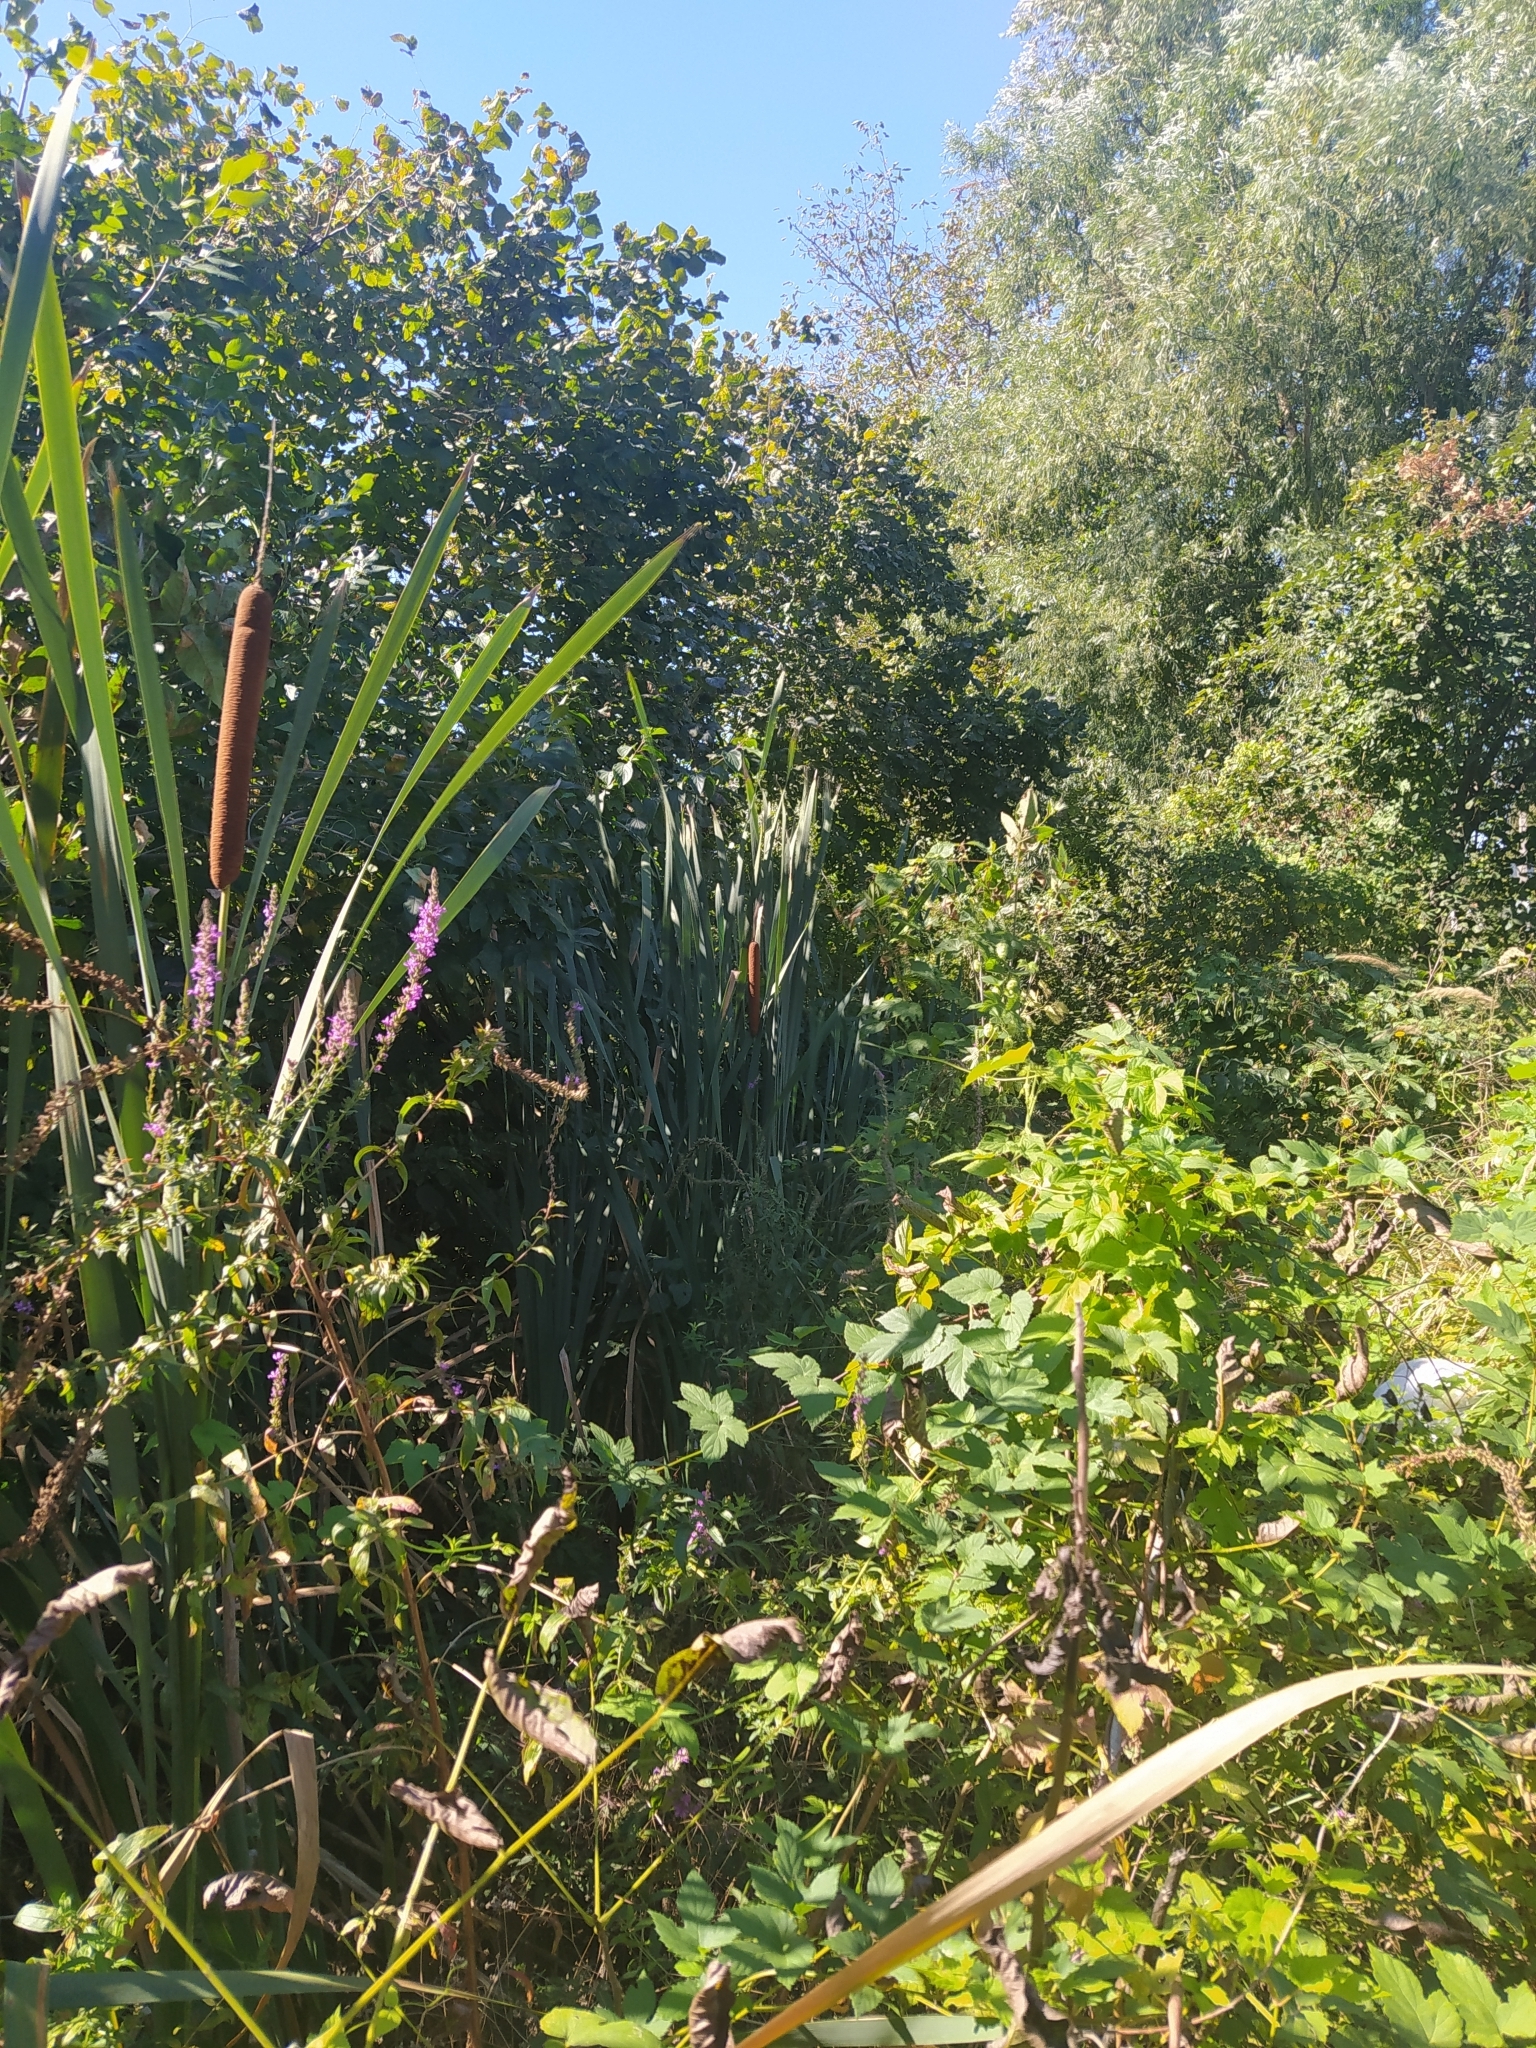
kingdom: Plantae
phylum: Tracheophyta
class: Liliopsida
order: Poales
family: Typhaceae
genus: Typha
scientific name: Typha latifolia
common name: Broadleaf cattail
